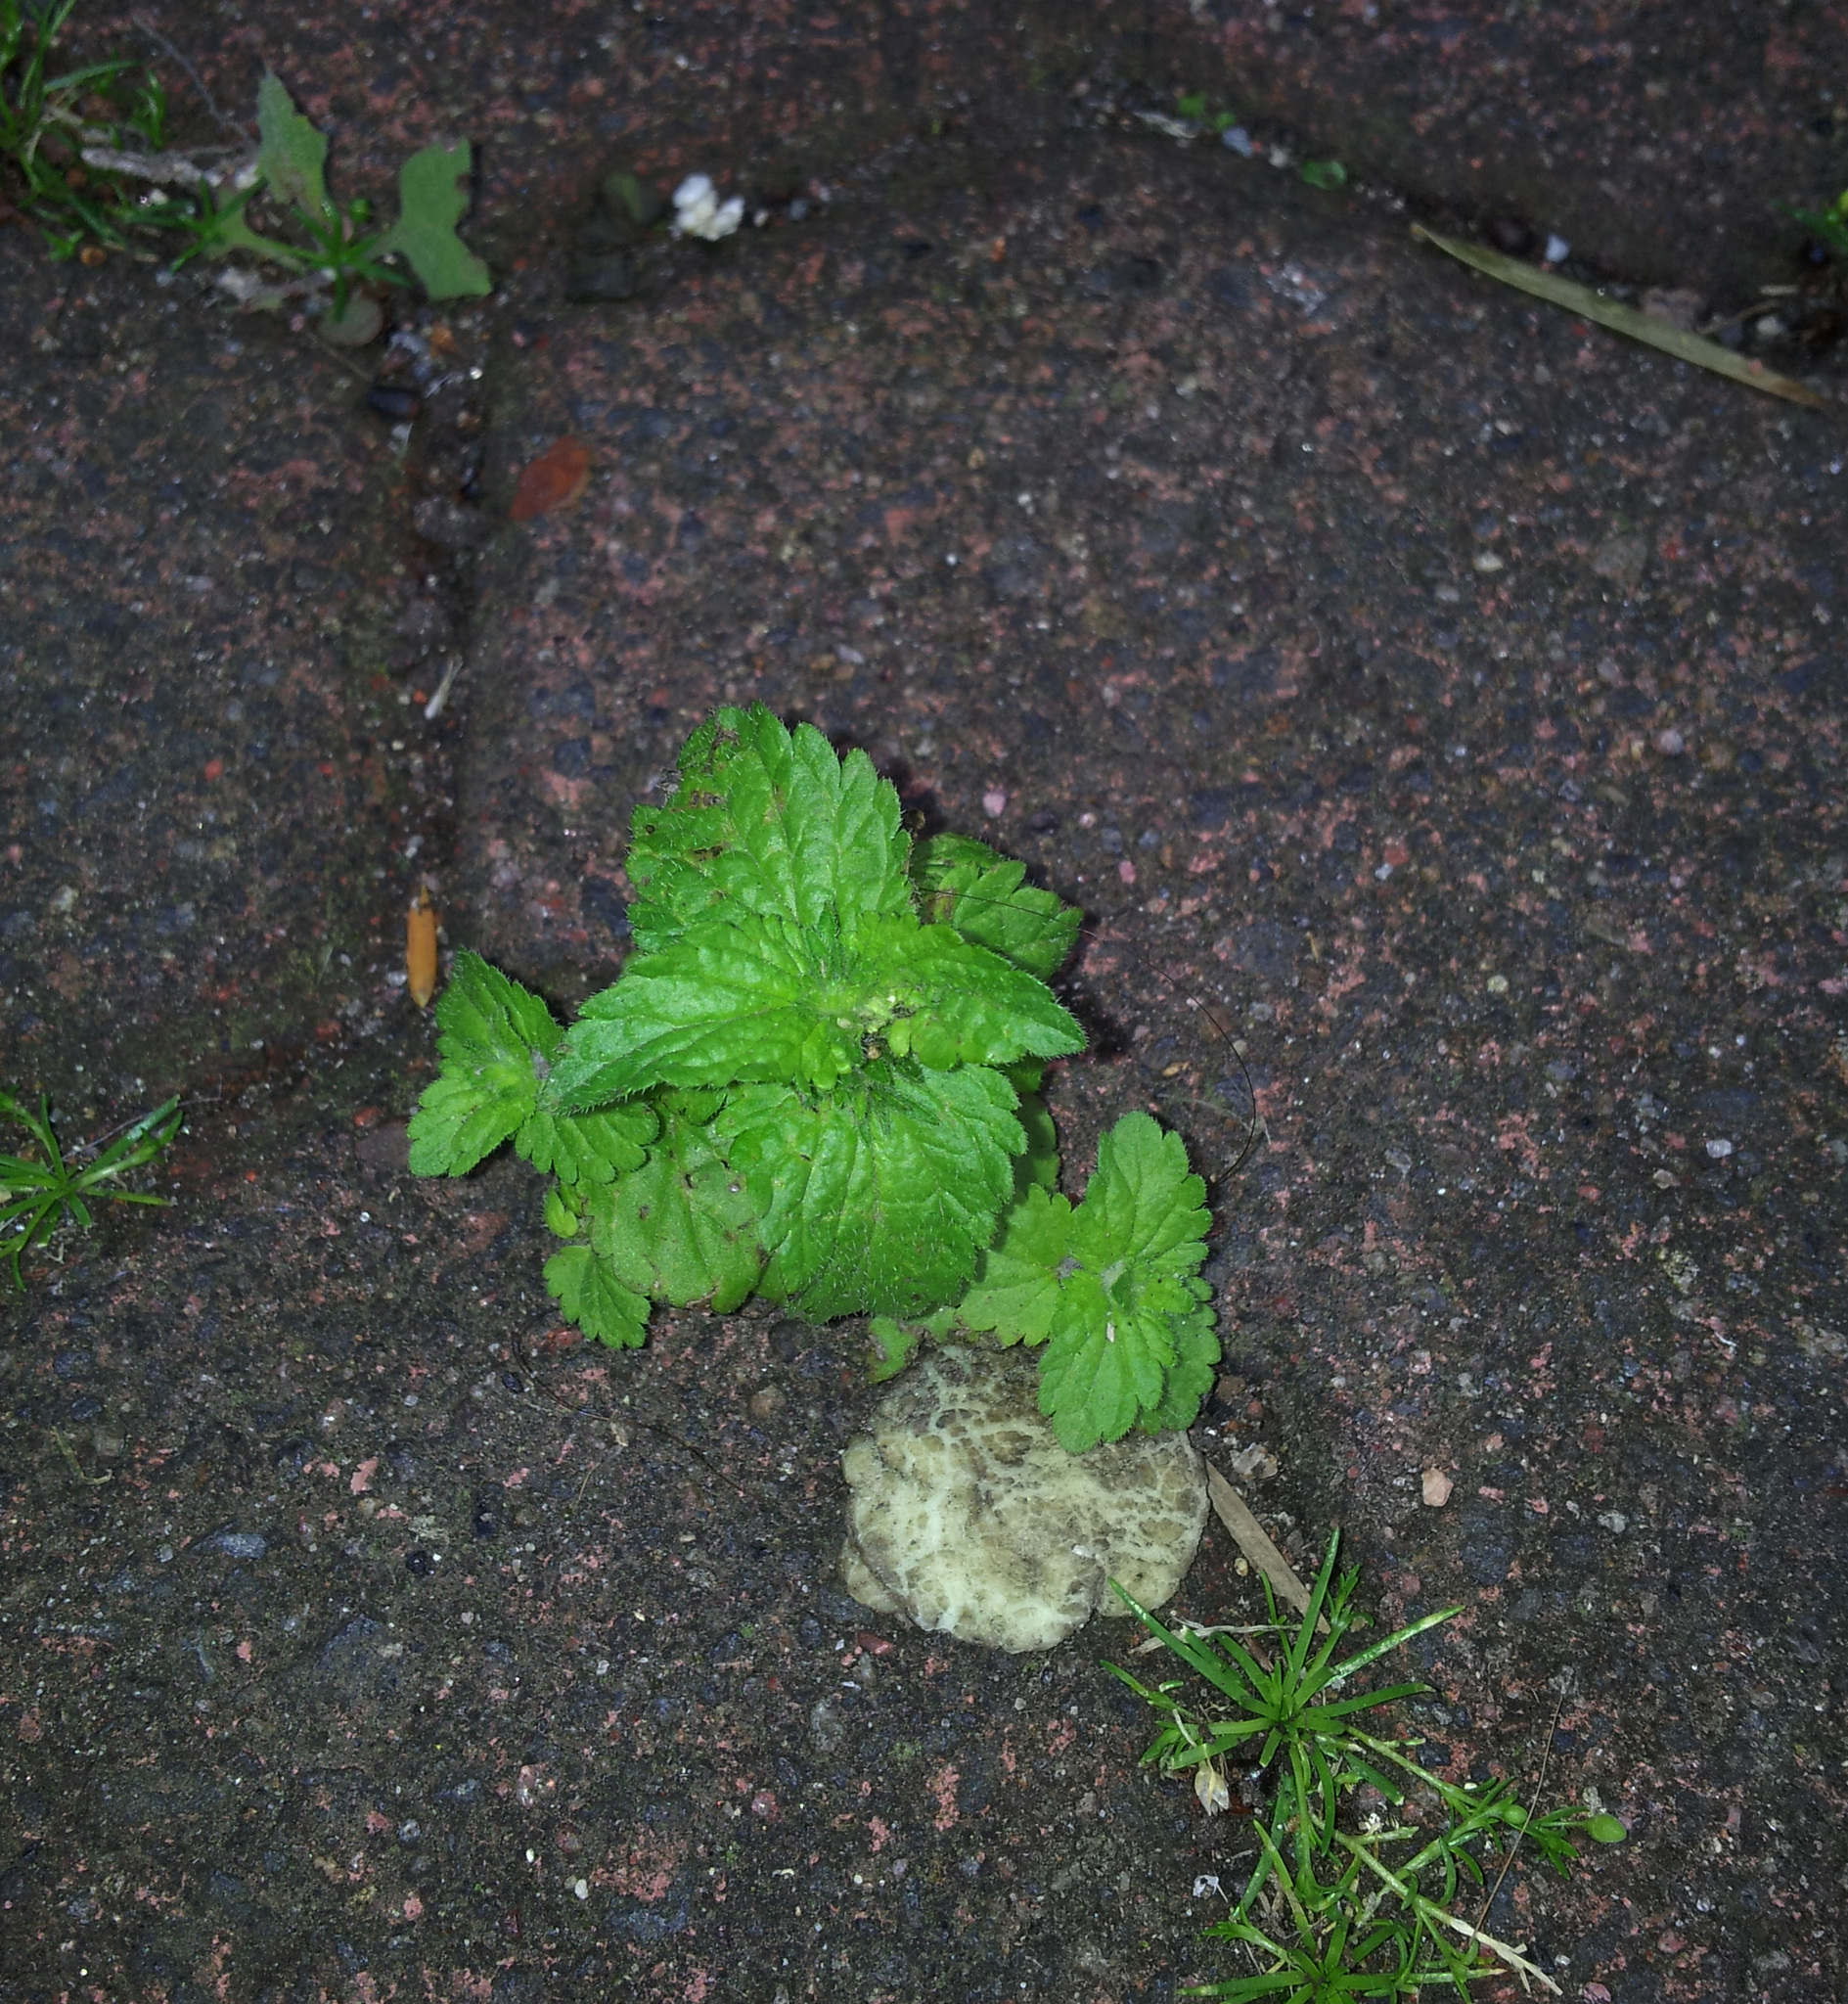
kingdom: Plantae
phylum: Tracheophyta
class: Magnoliopsida
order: Lamiales
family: Plantaginaceae
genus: Veronica
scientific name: Veronica javanica
